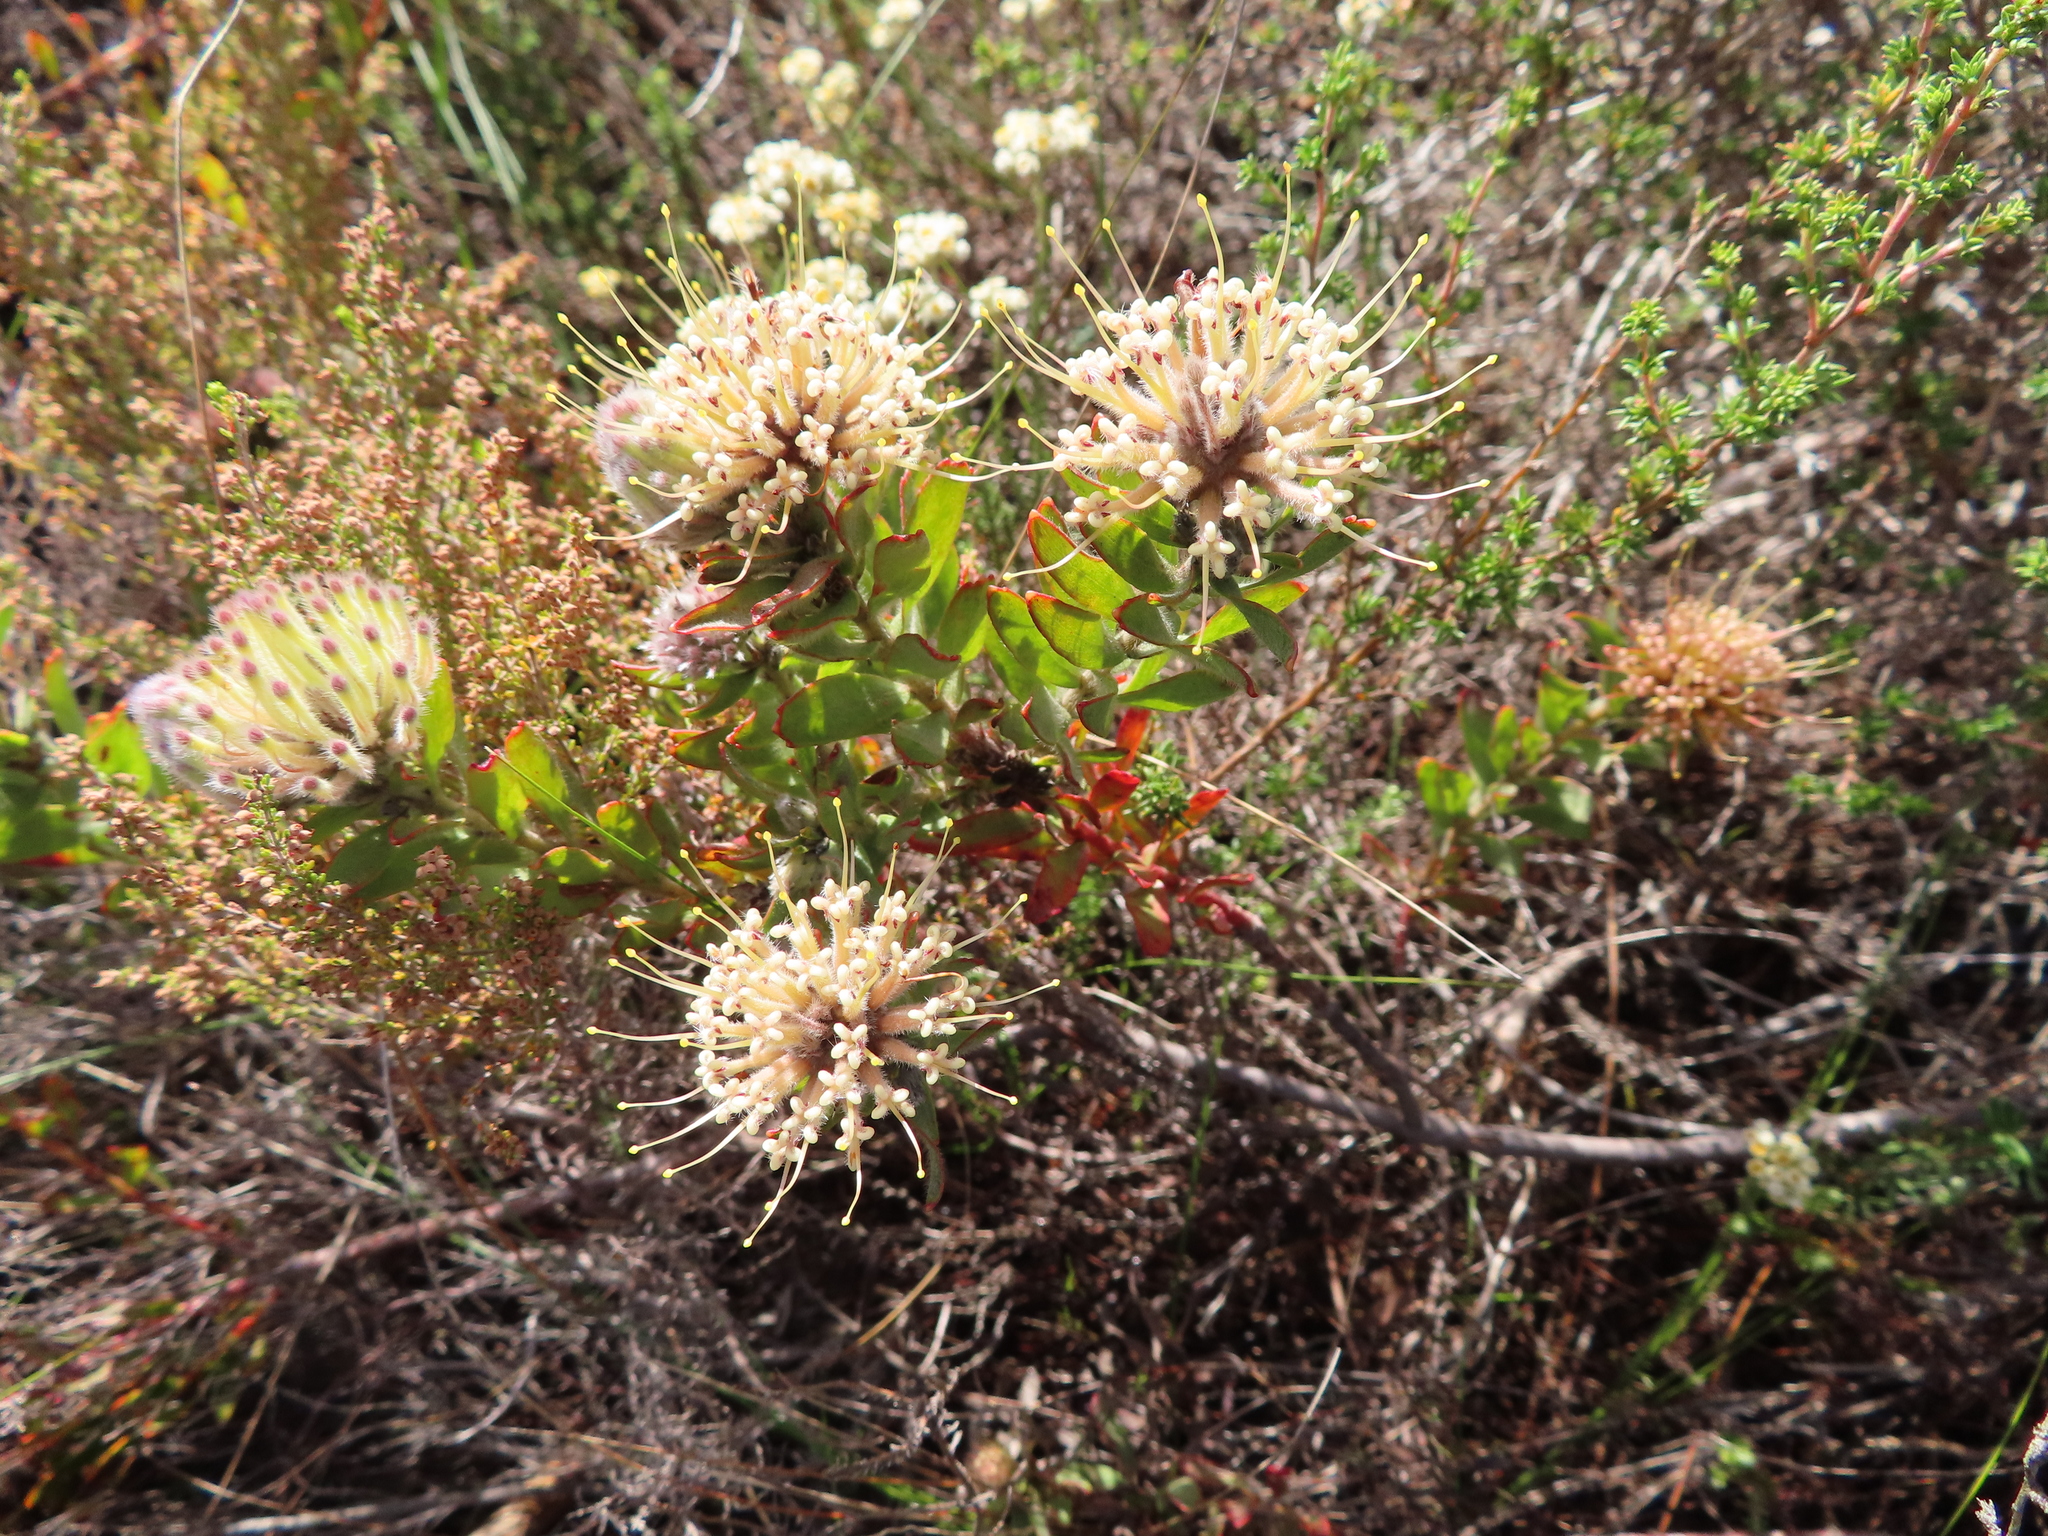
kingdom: Plantae
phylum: Tracheophyta
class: Magnoliopsida
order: Proteales
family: Proteaceae
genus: Leucospermum
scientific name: Leucospermum calligerum
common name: Arid pincushion
